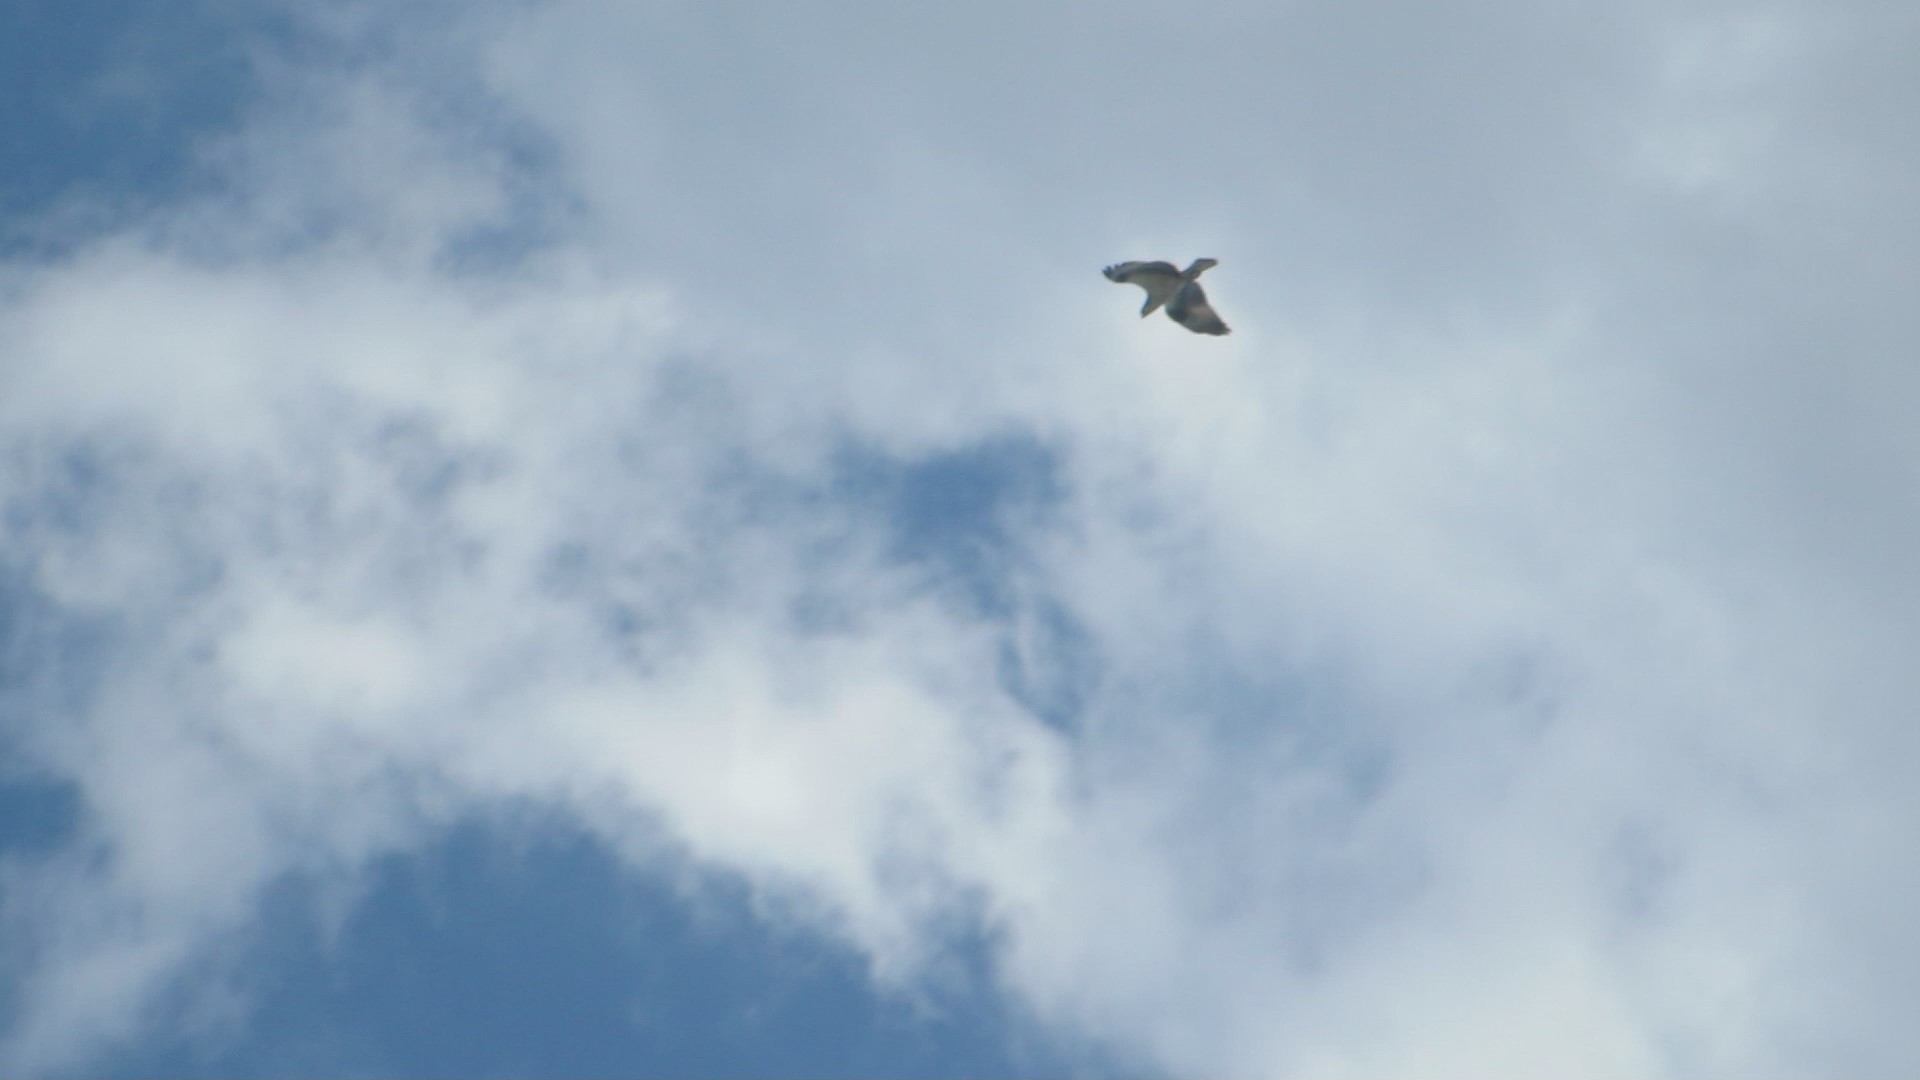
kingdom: Animalia
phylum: Chordata
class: Aves
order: Accipitriformes
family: Pandionidae
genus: Pandion
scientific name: Pandion haliaetus
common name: Osprey
